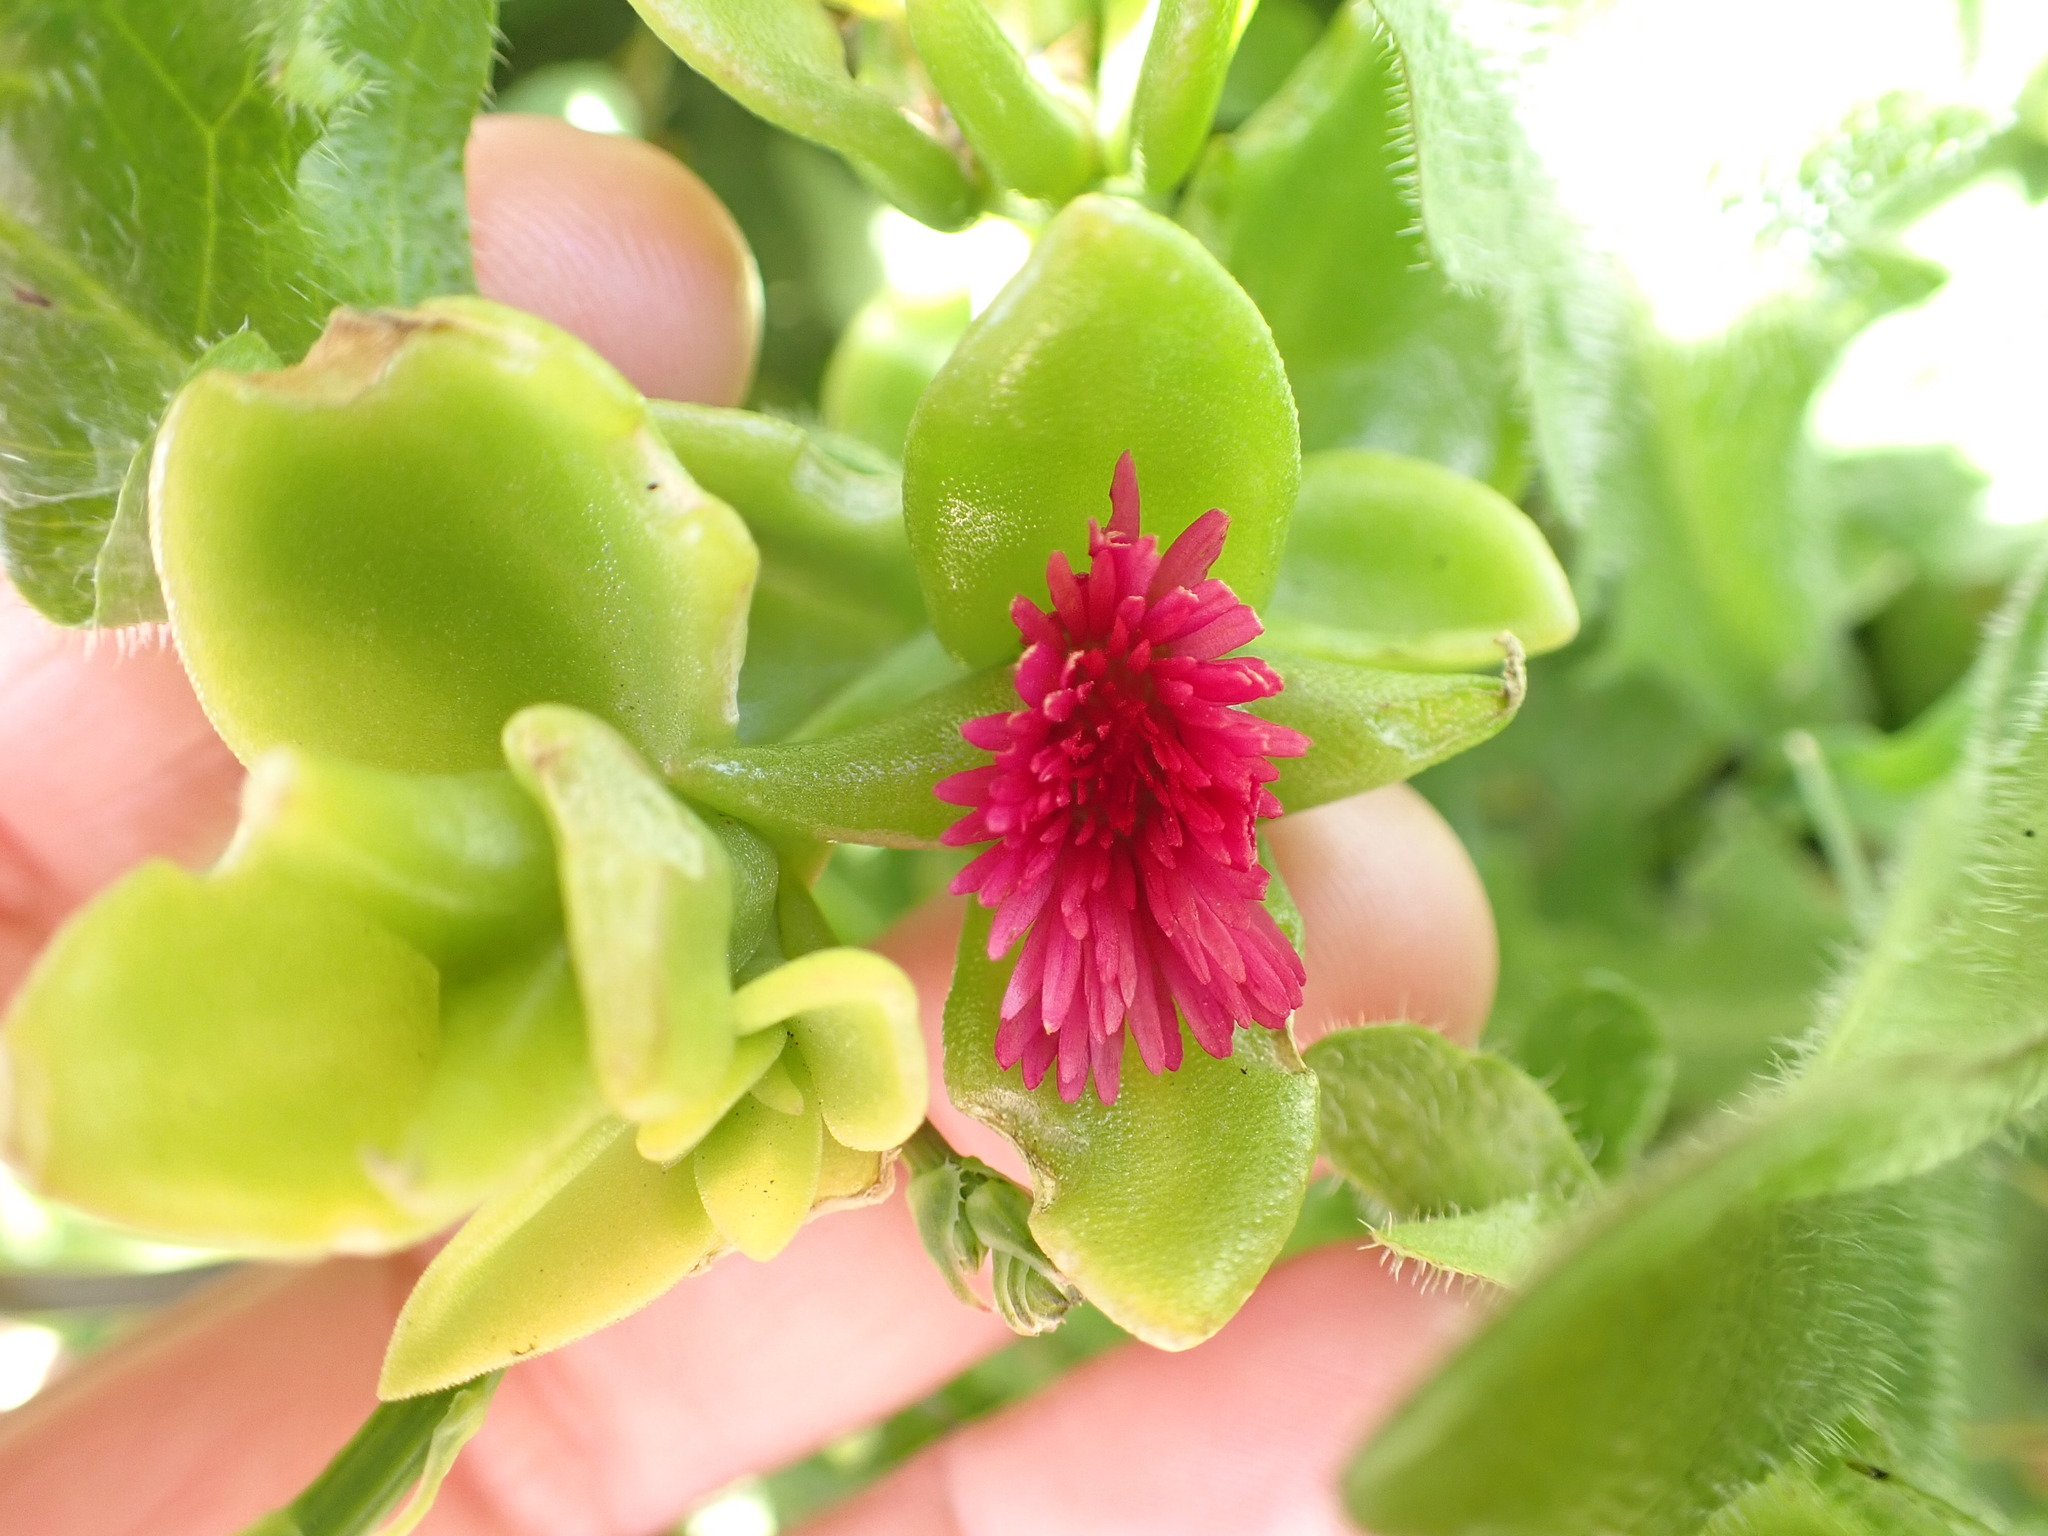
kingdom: Plantae
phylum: Tracheophyta
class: Magnoliopsida
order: Caryophyllales
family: Aizoaceae
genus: Mesembryanthemum
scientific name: Mesembryanthemum cordifolium
